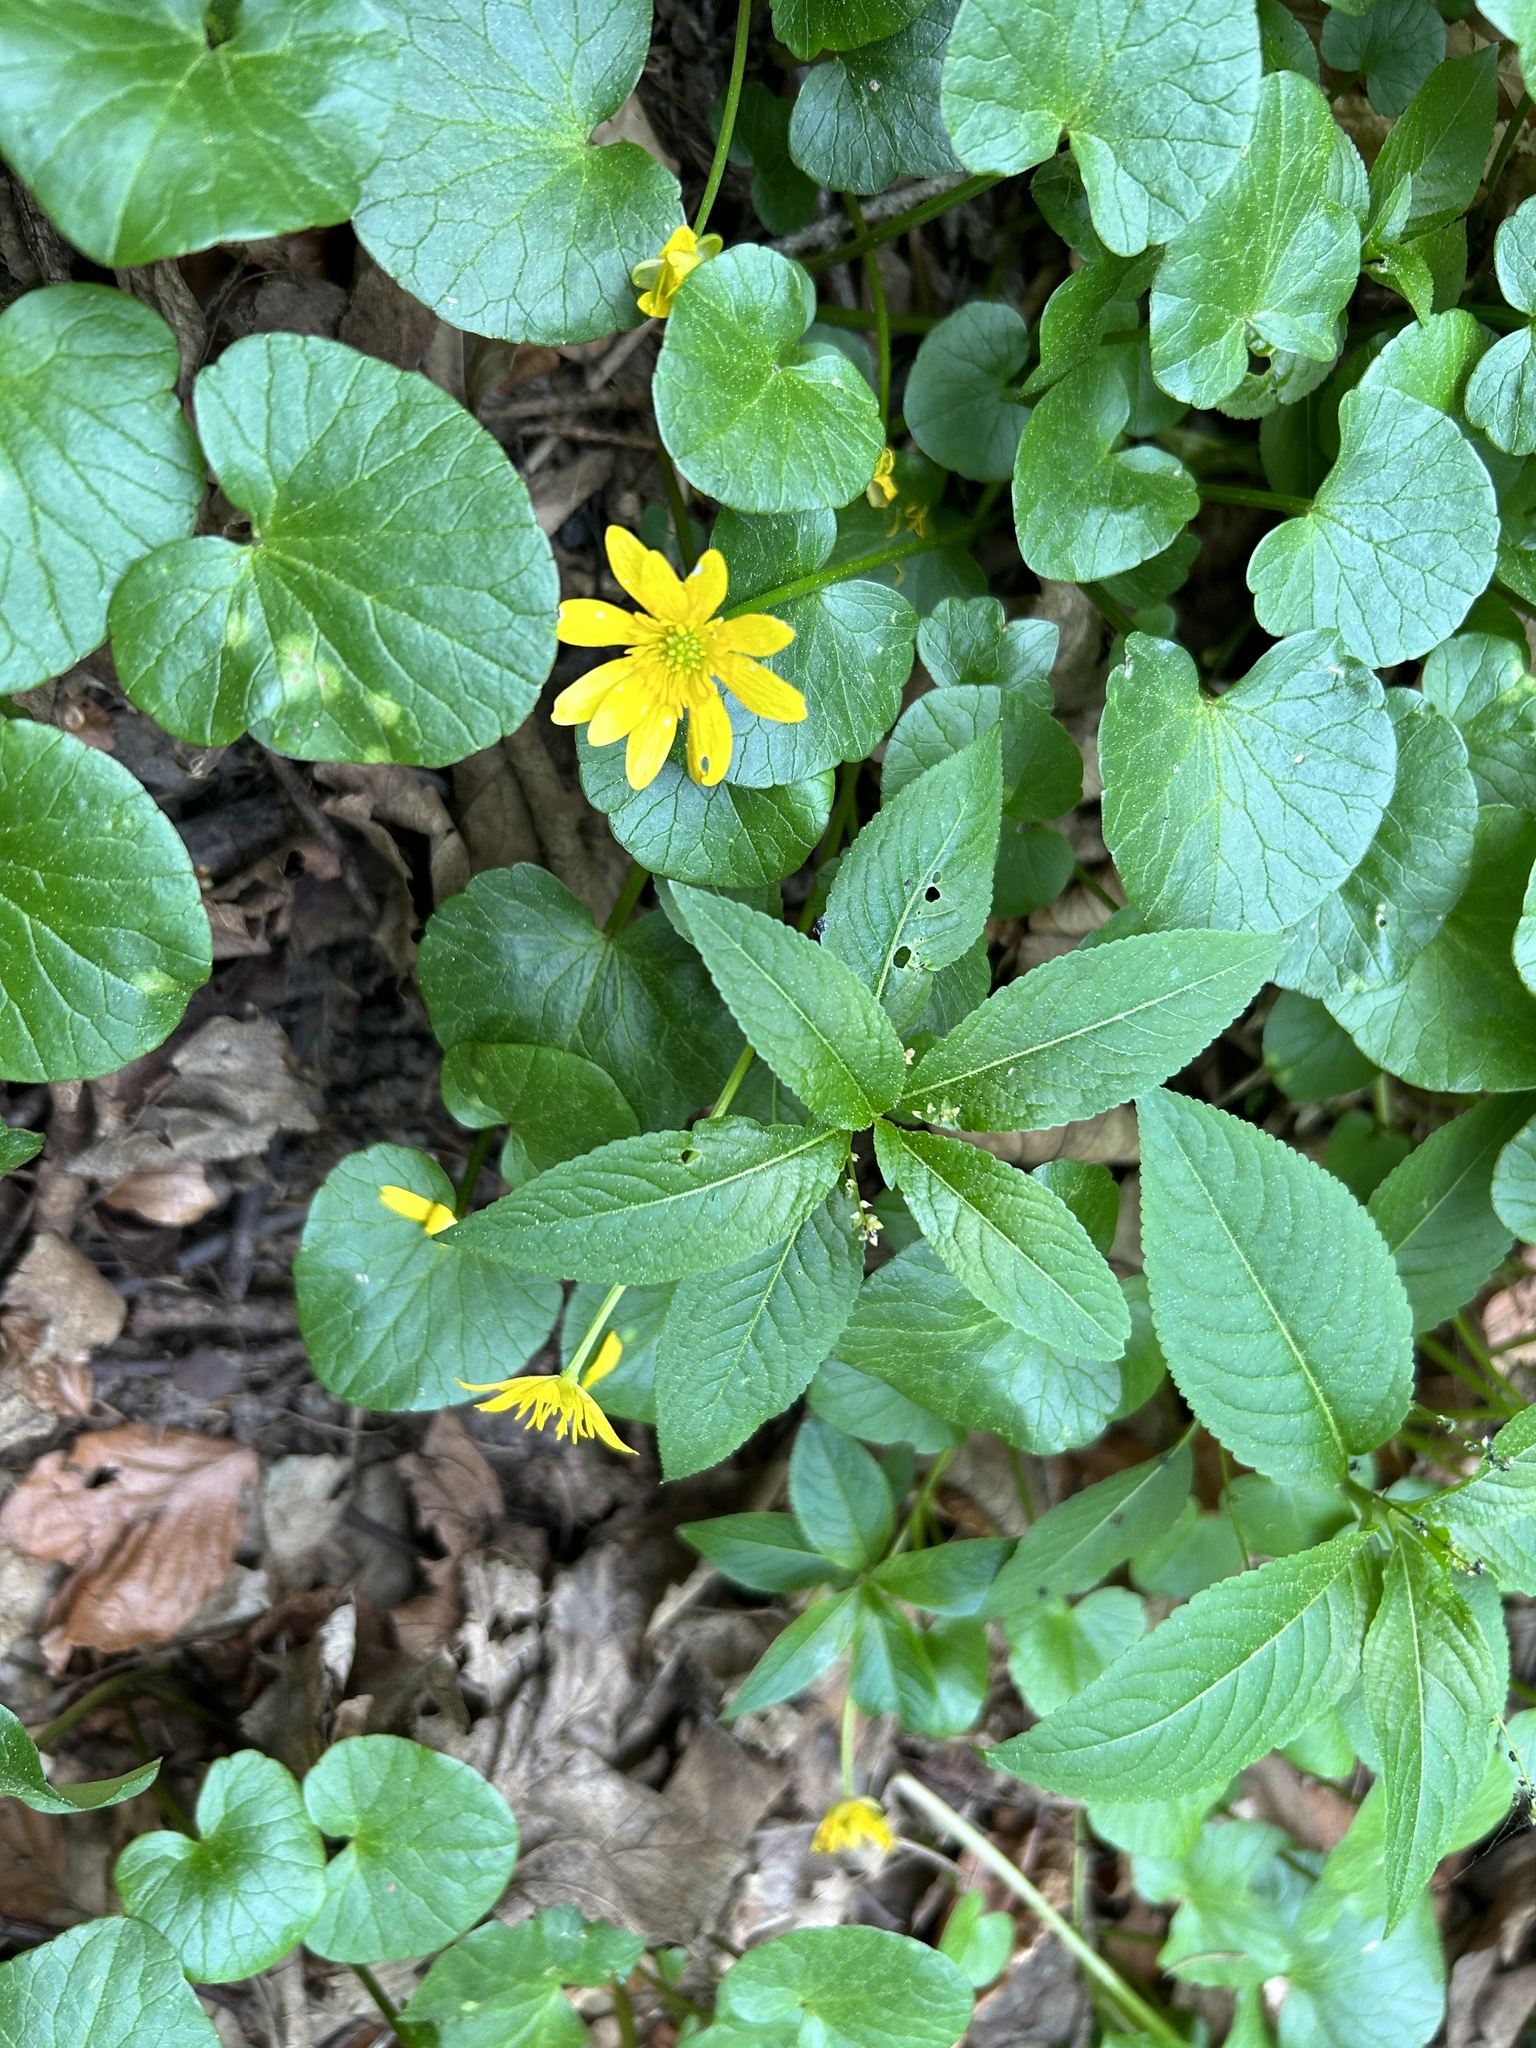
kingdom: Plantae
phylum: Tracheophyta
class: Magnoliopsida
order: Ranunculales
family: Ranunculaceae
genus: Ficaria
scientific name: Ficaria verna
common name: Lesser celandine
